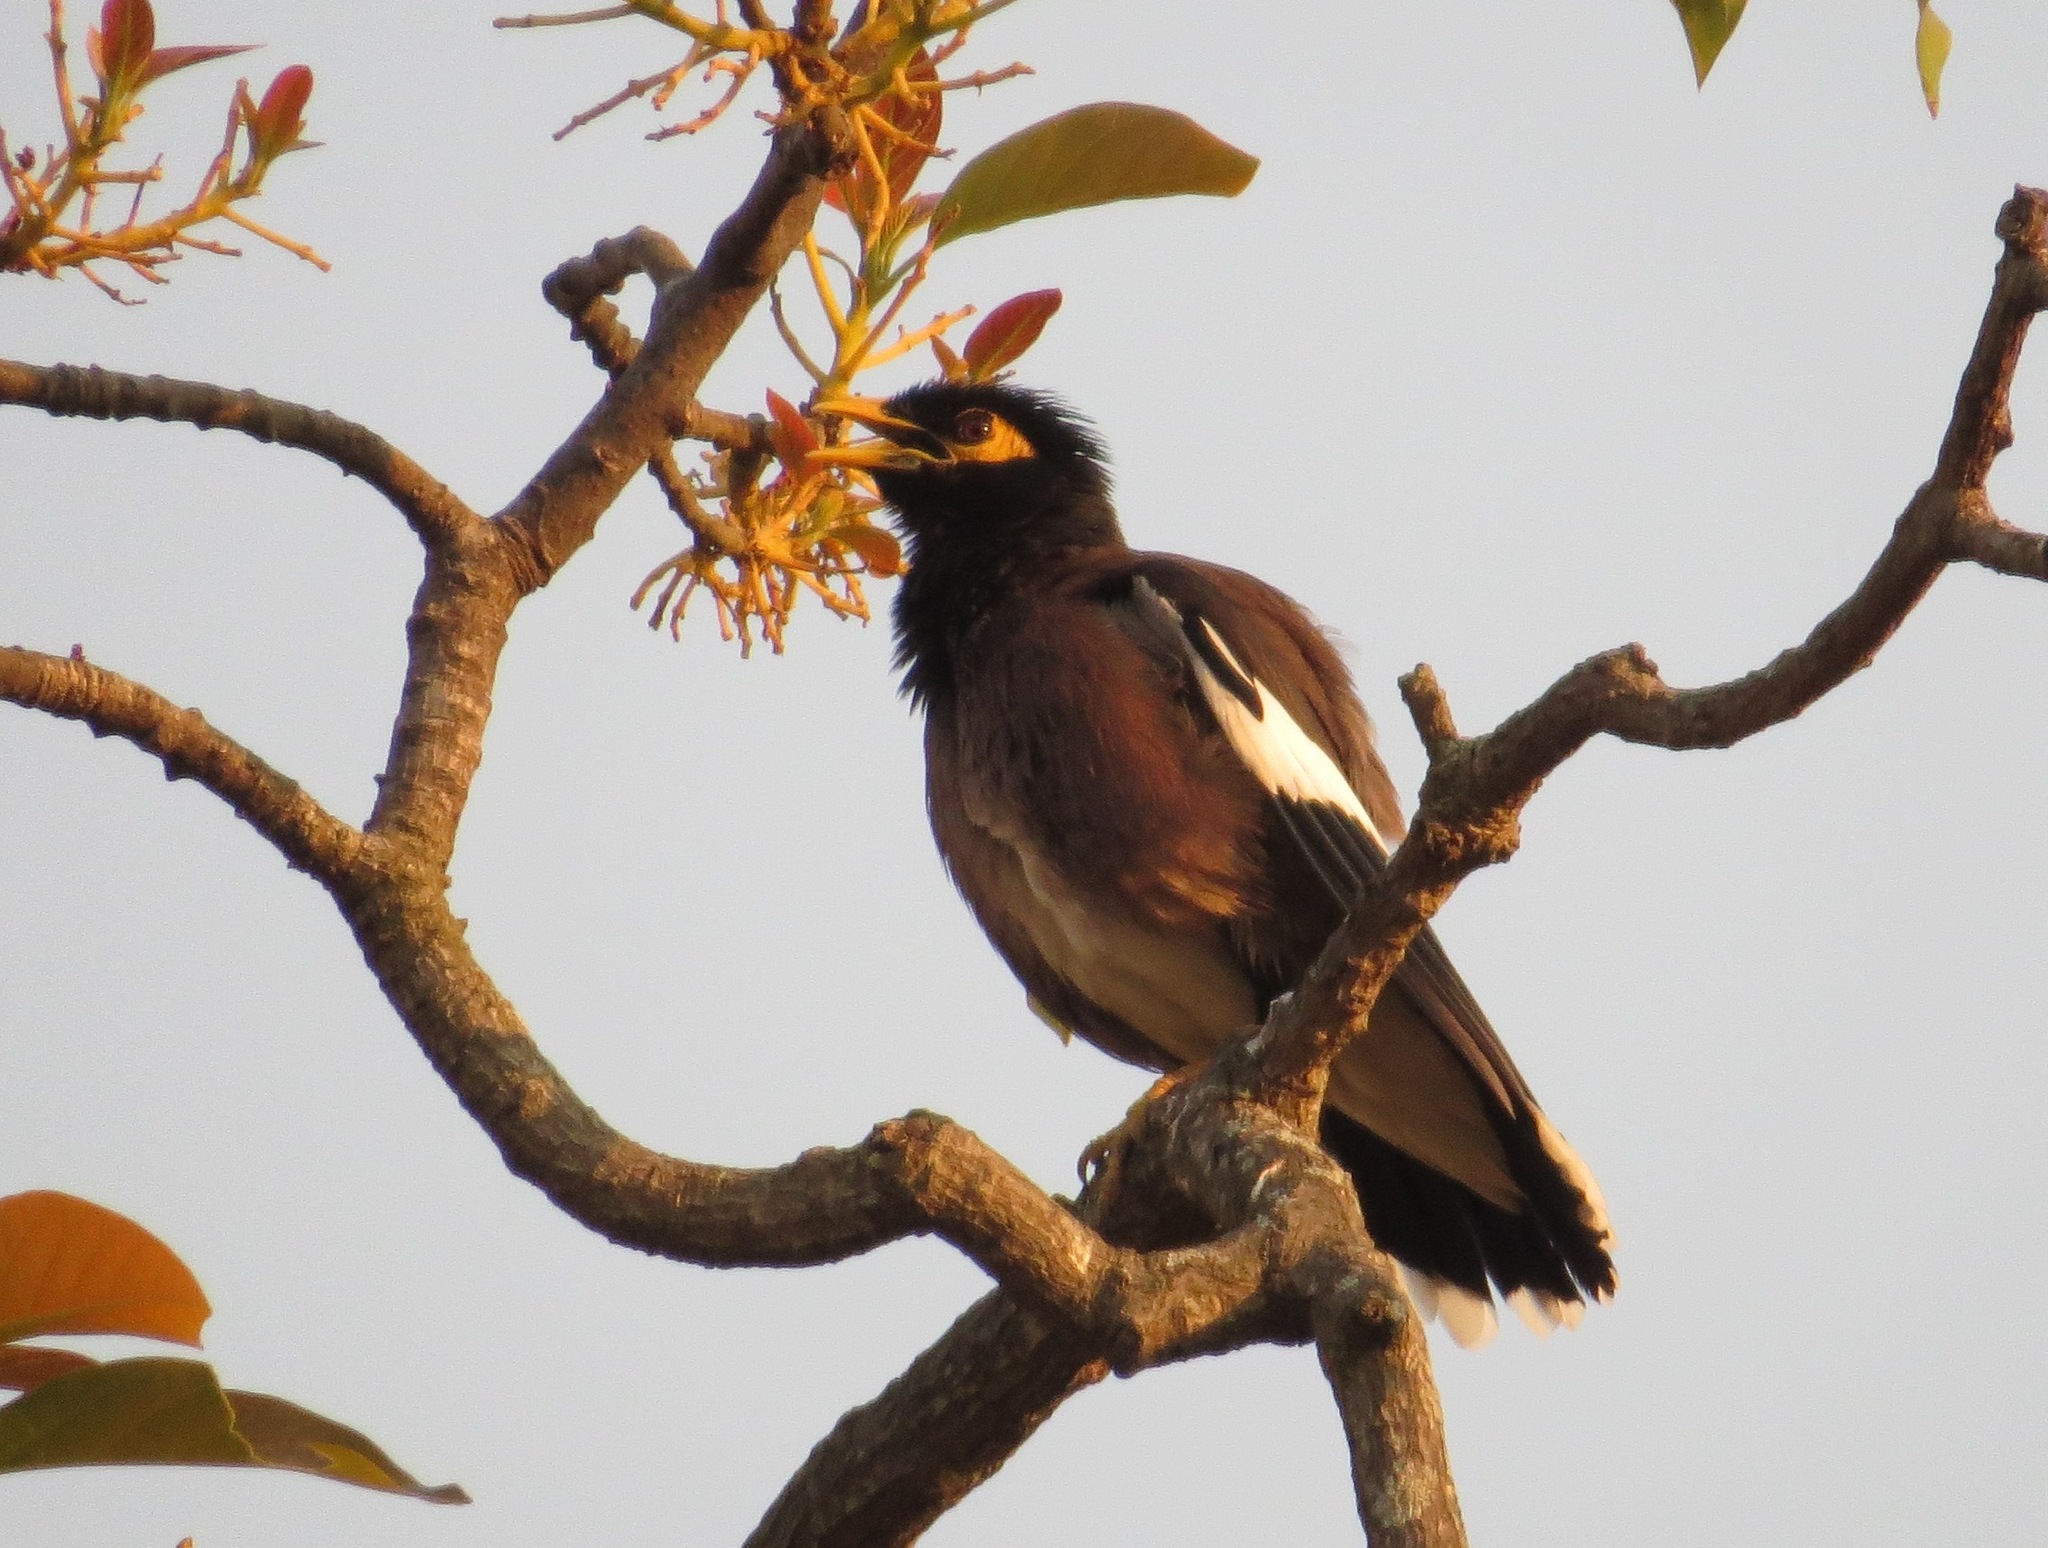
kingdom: Animalia
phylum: Chordata
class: Aves
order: Passeriformes
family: Sturnidae
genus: Acridotheres
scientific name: Acridotheres tristis
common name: Common myna
